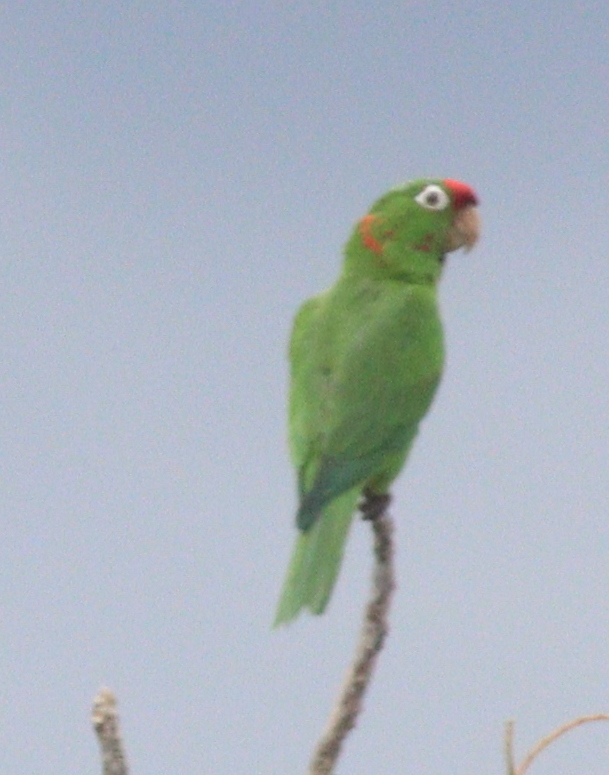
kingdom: Animalia
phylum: Chordata
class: Aves
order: Psittaciformes
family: Psittacidae
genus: Aratinga
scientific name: Aratinga finschi
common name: Crimson-fronted parakeet
